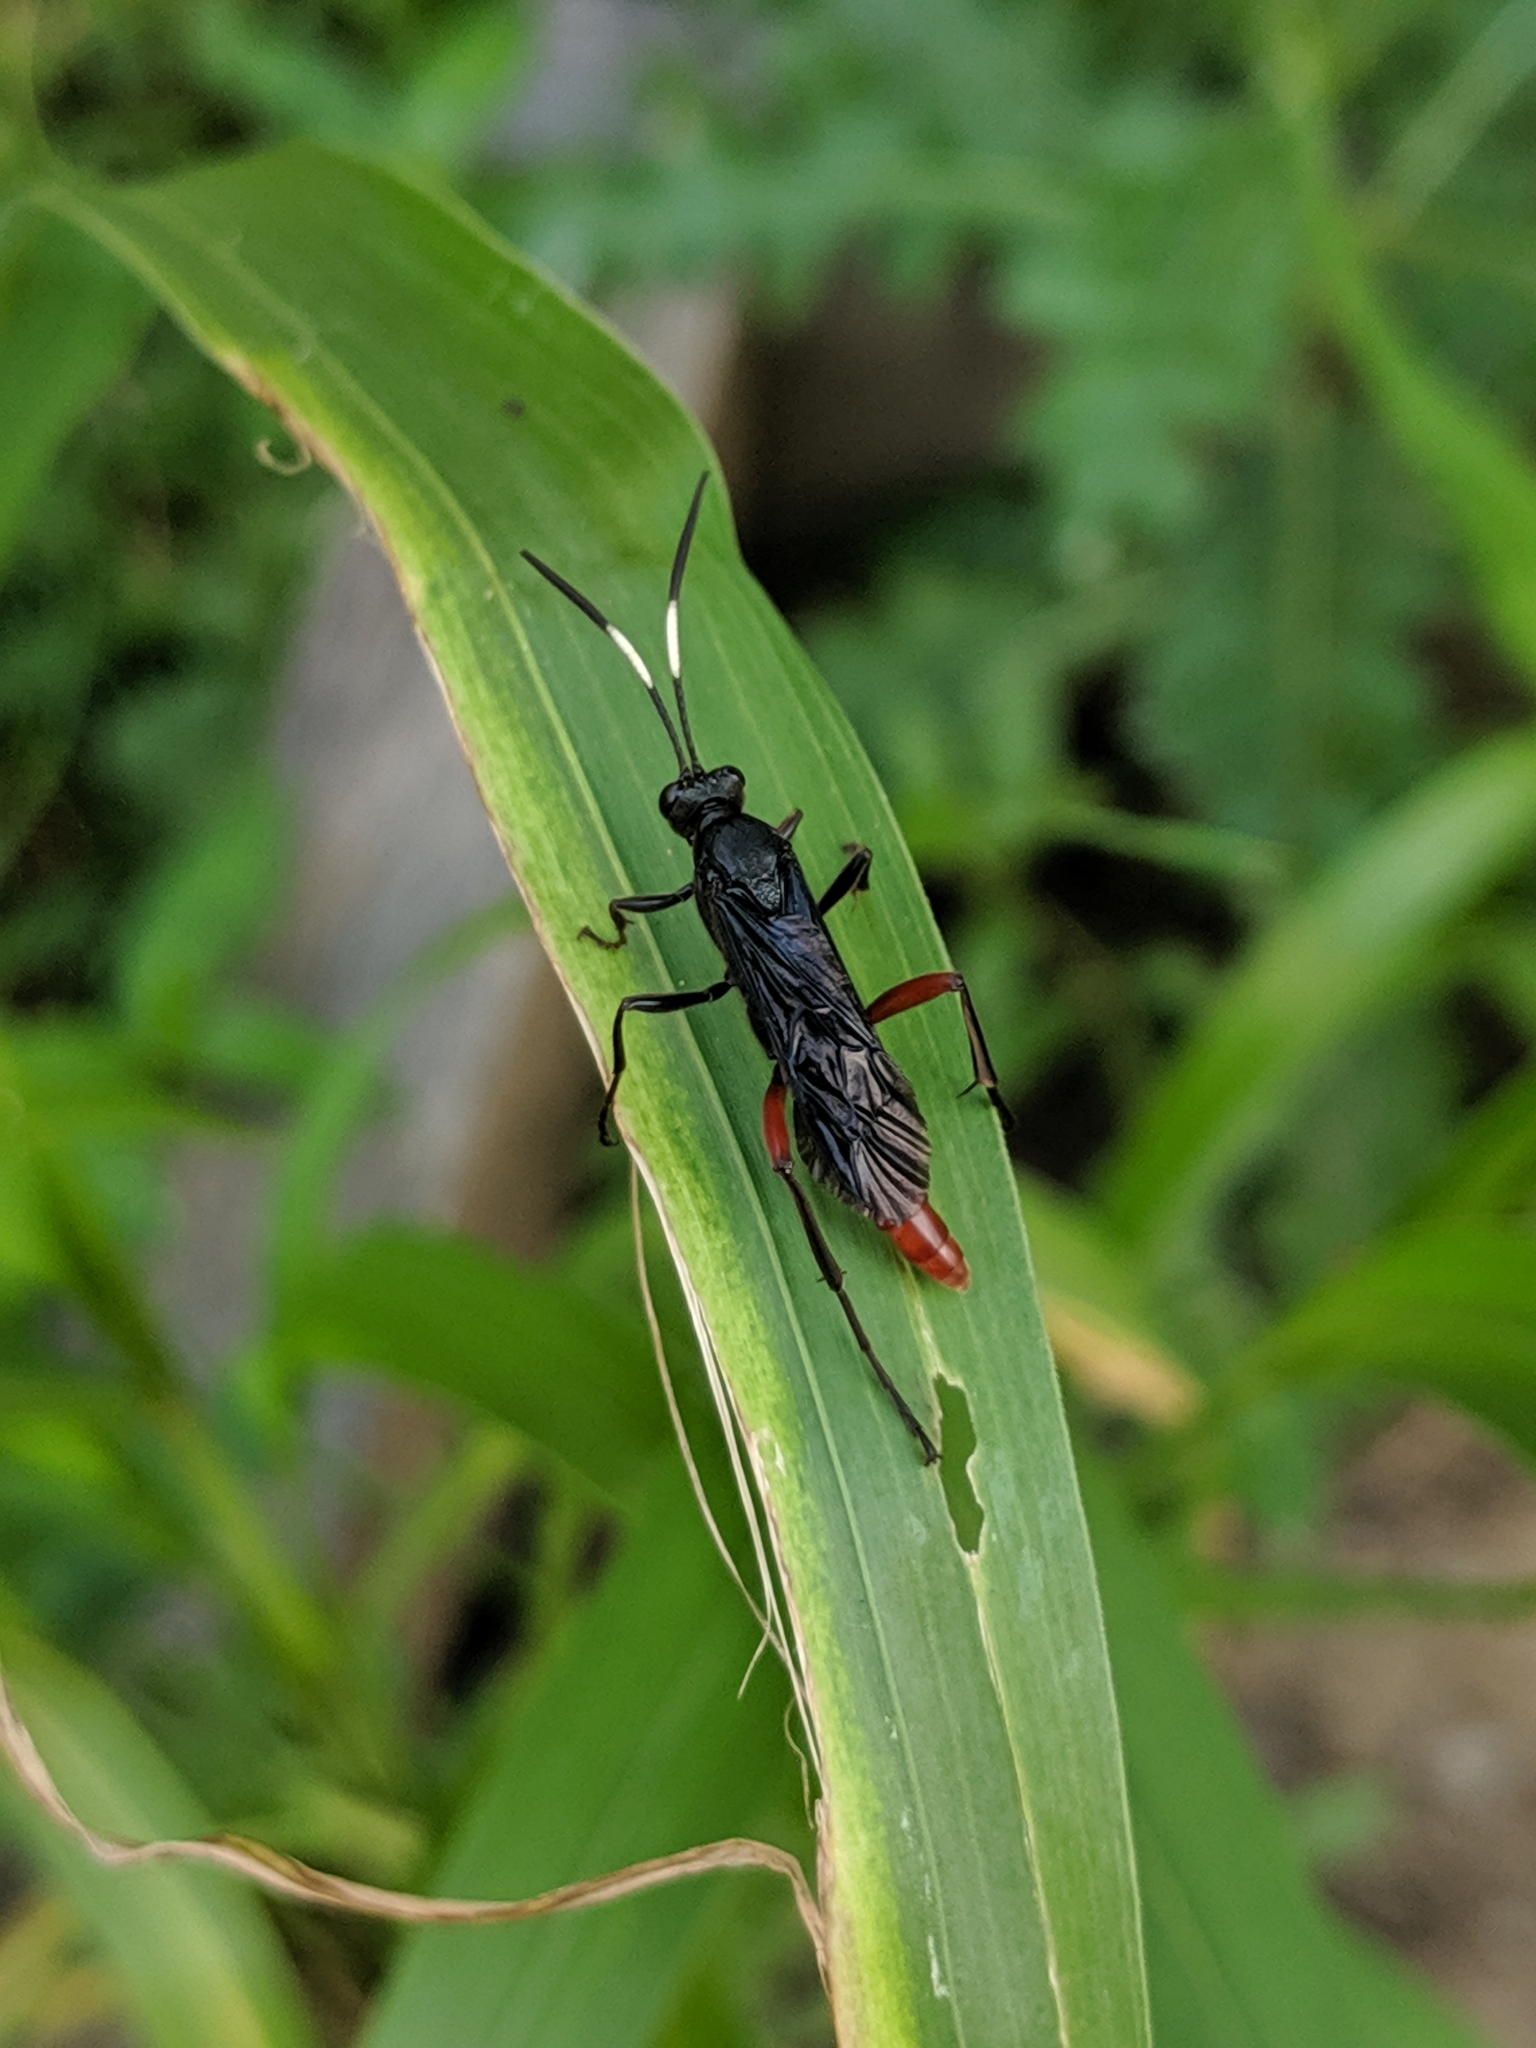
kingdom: Animalia
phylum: Arthropoda
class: Insecta
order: Hymenoptera
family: Ichneumonidae
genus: Limonethe
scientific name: Limonethe maurator
